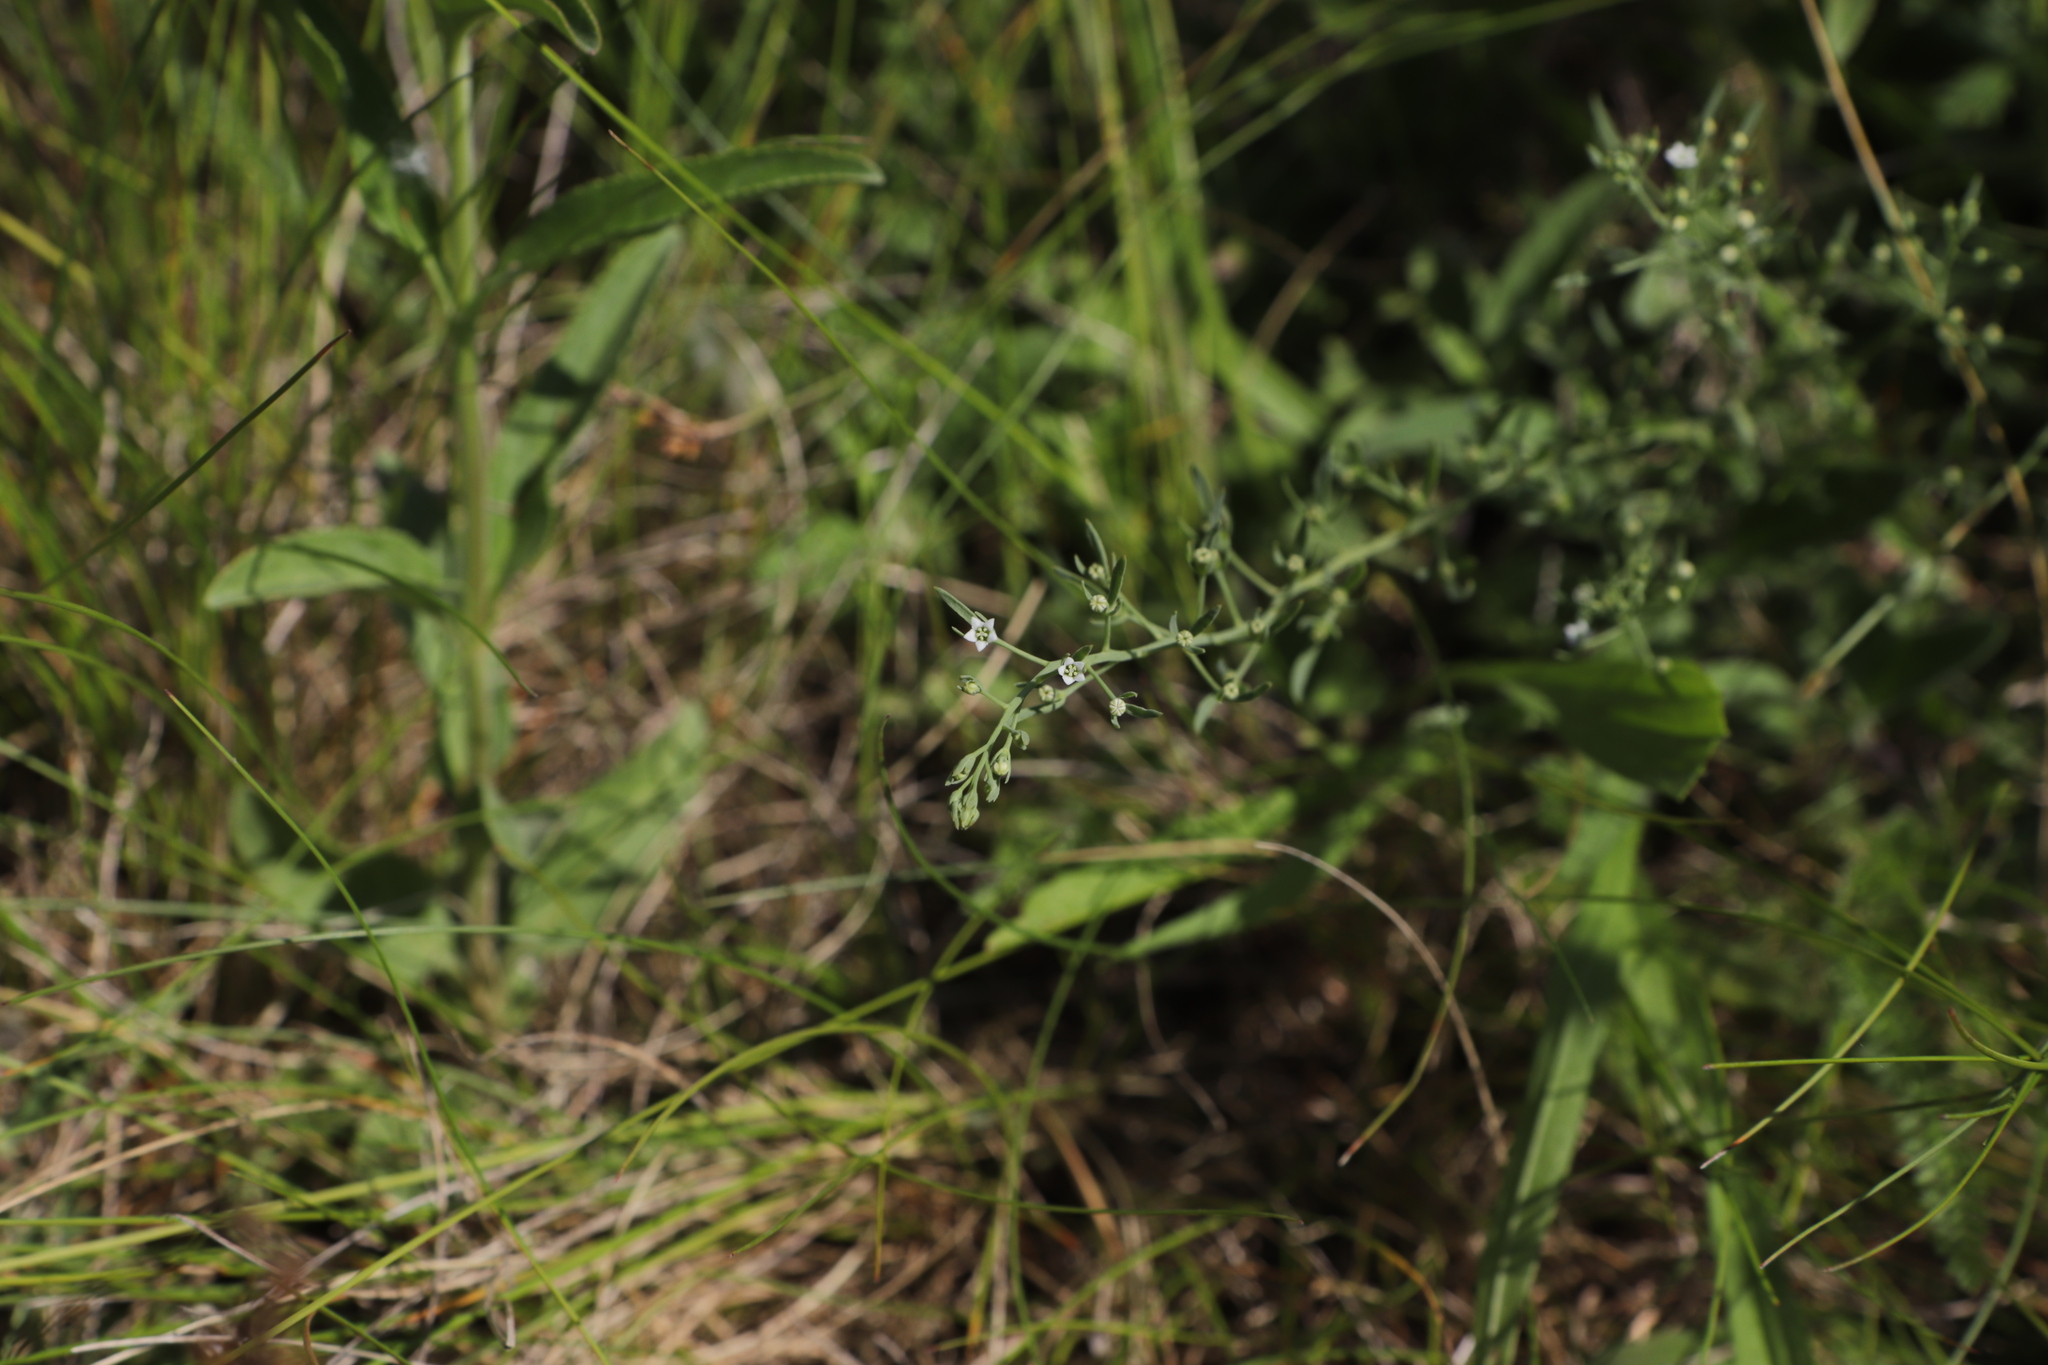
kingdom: Plantae
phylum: Tracheophyta
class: Magnoliopsida
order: Santalales
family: Thesiaceae
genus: Thesium
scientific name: Thesium ramosum
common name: Field thesium
